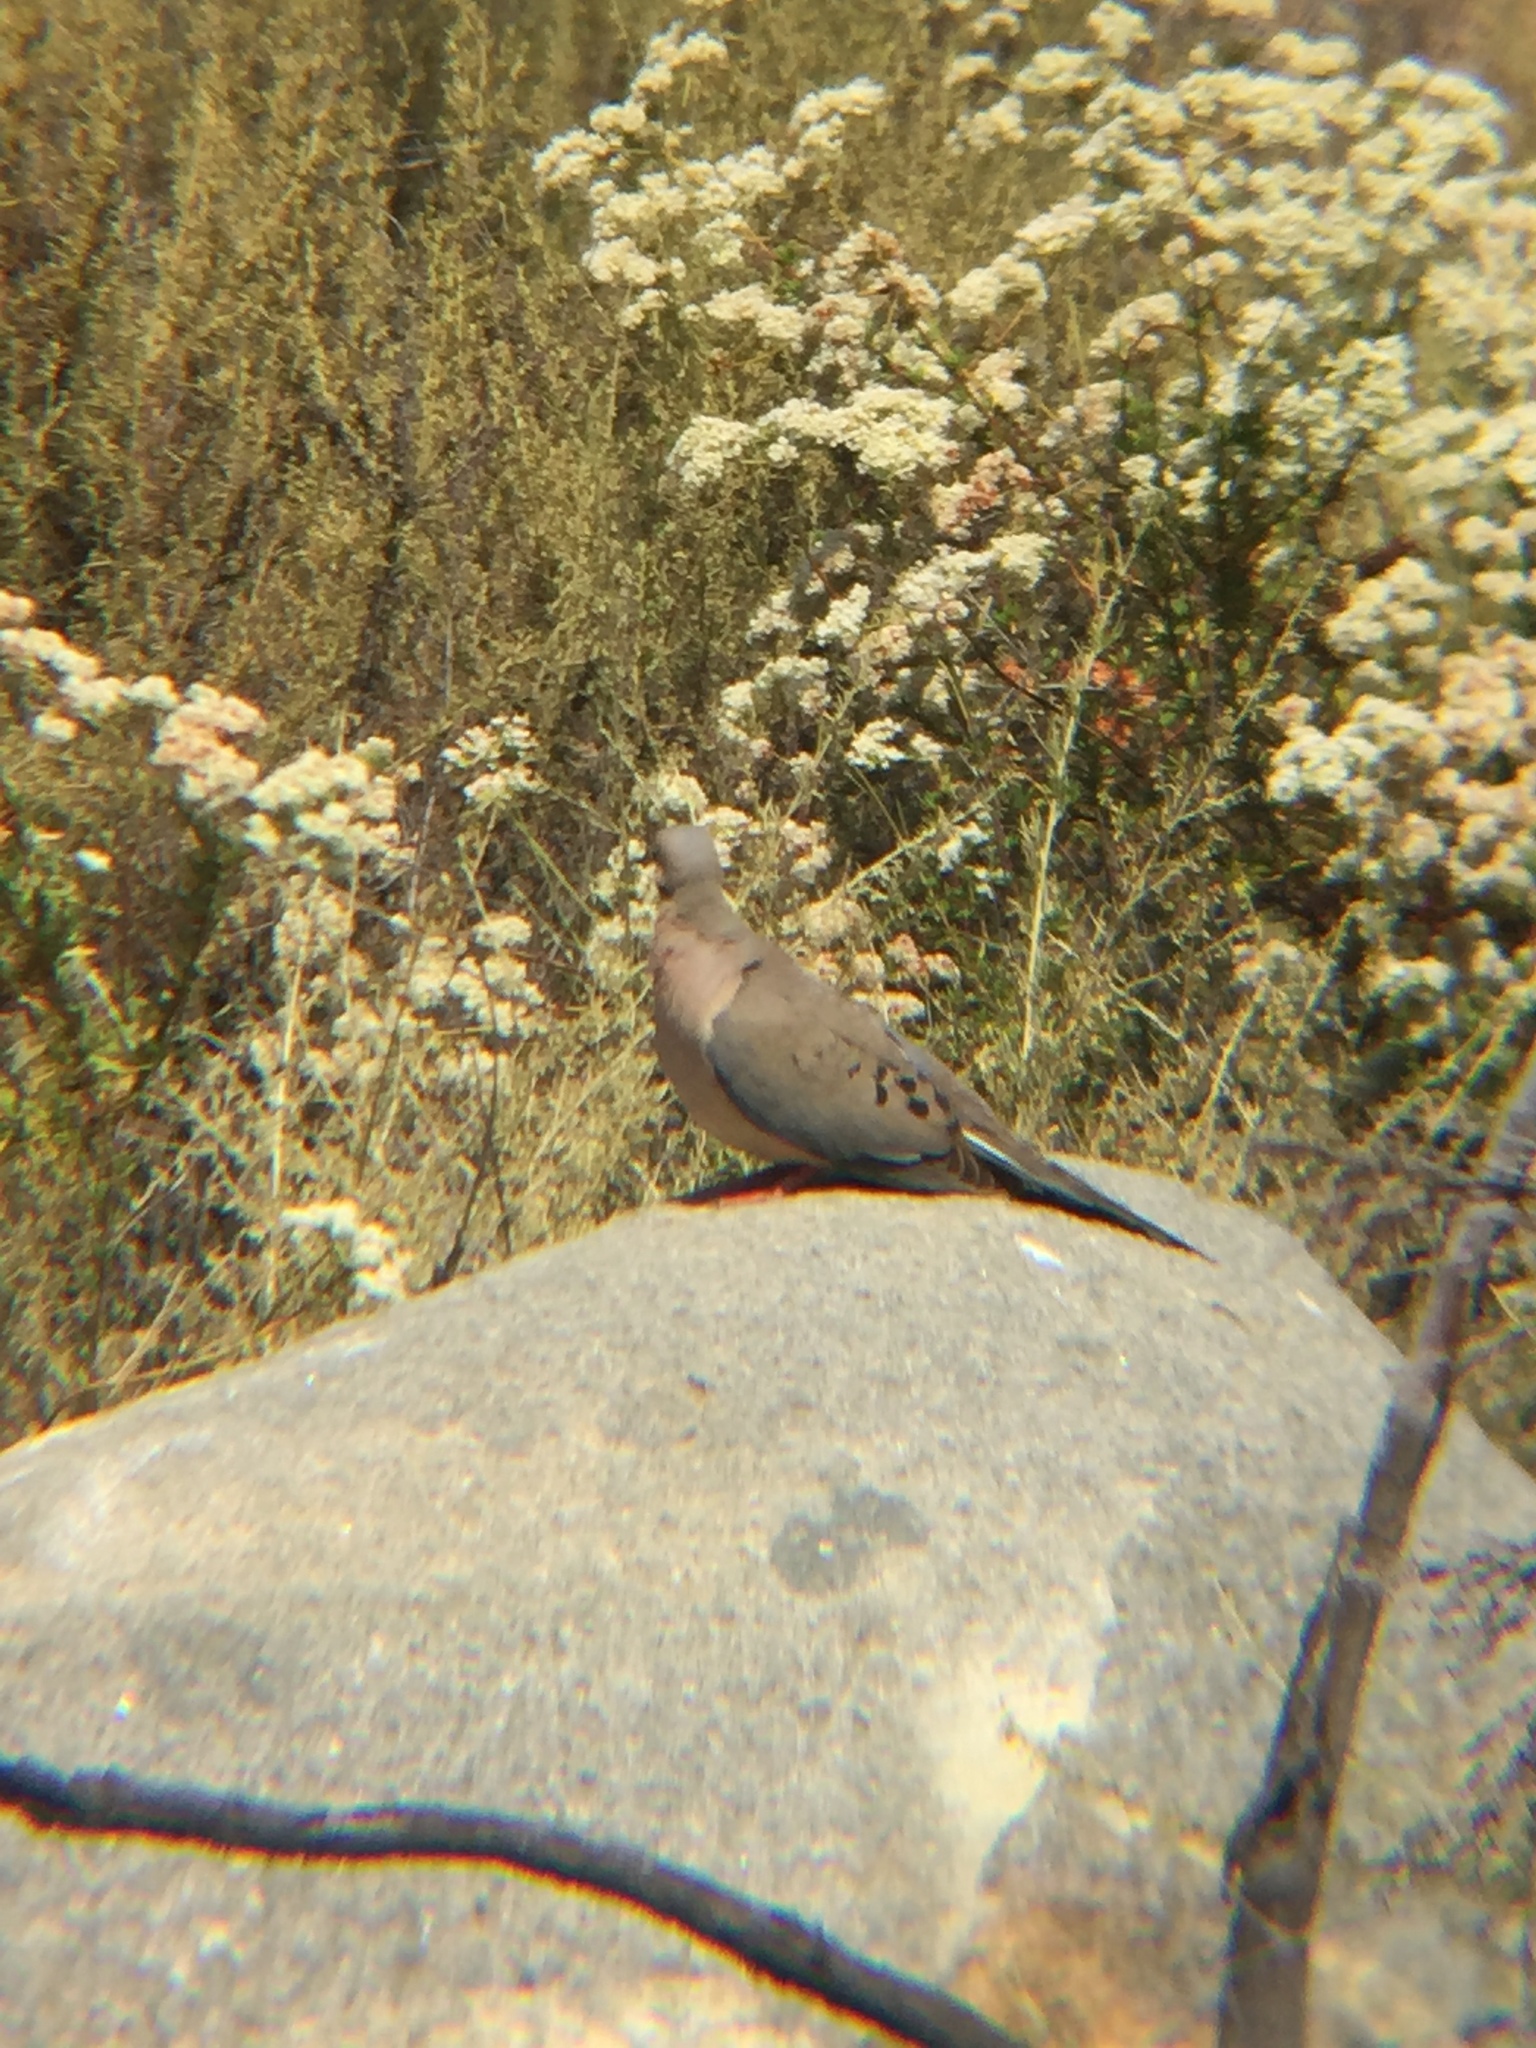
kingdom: Animalia
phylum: Chordata
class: Aves
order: Columbiformes
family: Columbidae
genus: Zenaida
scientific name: Zenaida macroura
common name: Mourning dove
